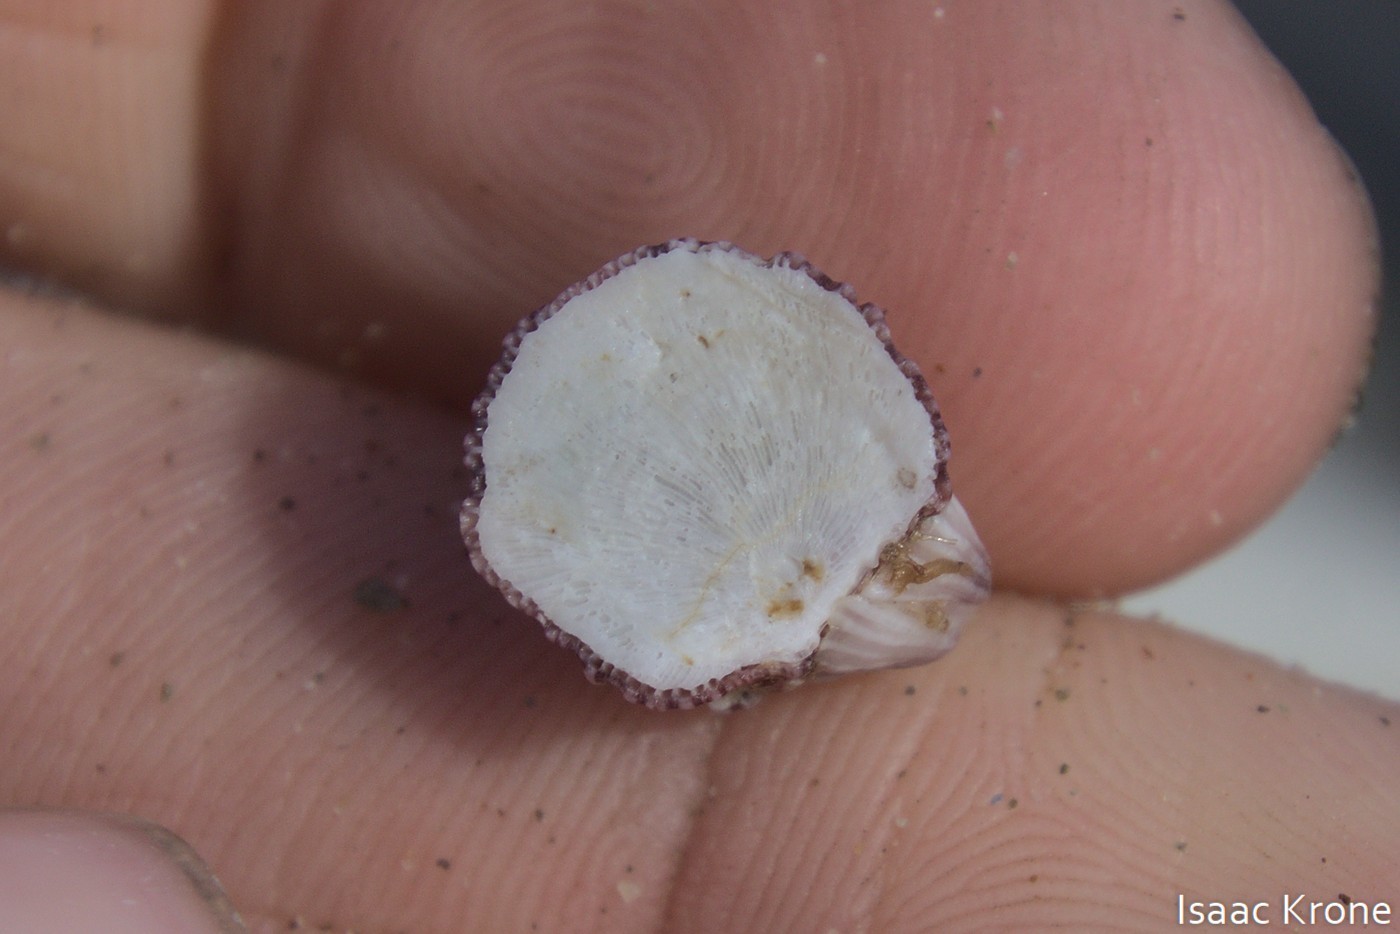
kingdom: Animalia
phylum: Arthropoda
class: Maxillopoda
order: Sessilia
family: Balanidae
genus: Megabalanus
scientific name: Megabalanus californicus
